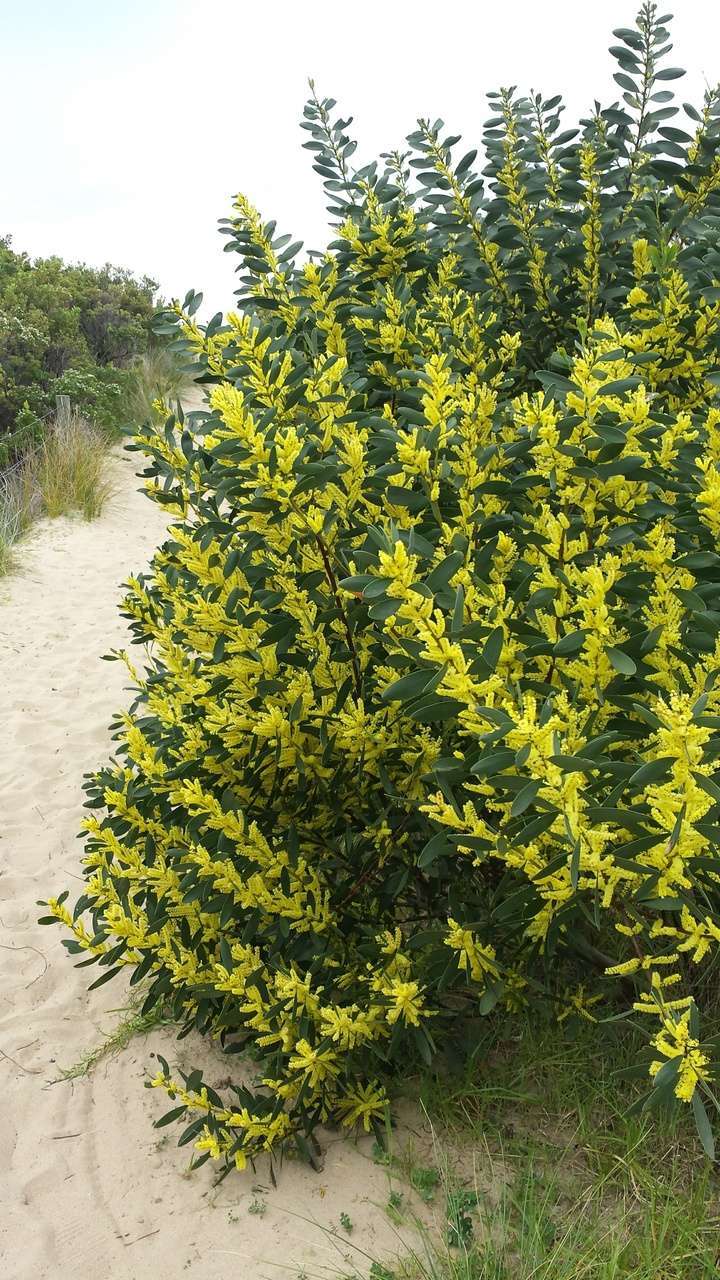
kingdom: Plantae
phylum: Tracheophyta
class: Magnoliopsida
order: Fabales
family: Fabaceae
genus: Acacia
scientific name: Acacia longifolia
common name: Sydney golden wattle
